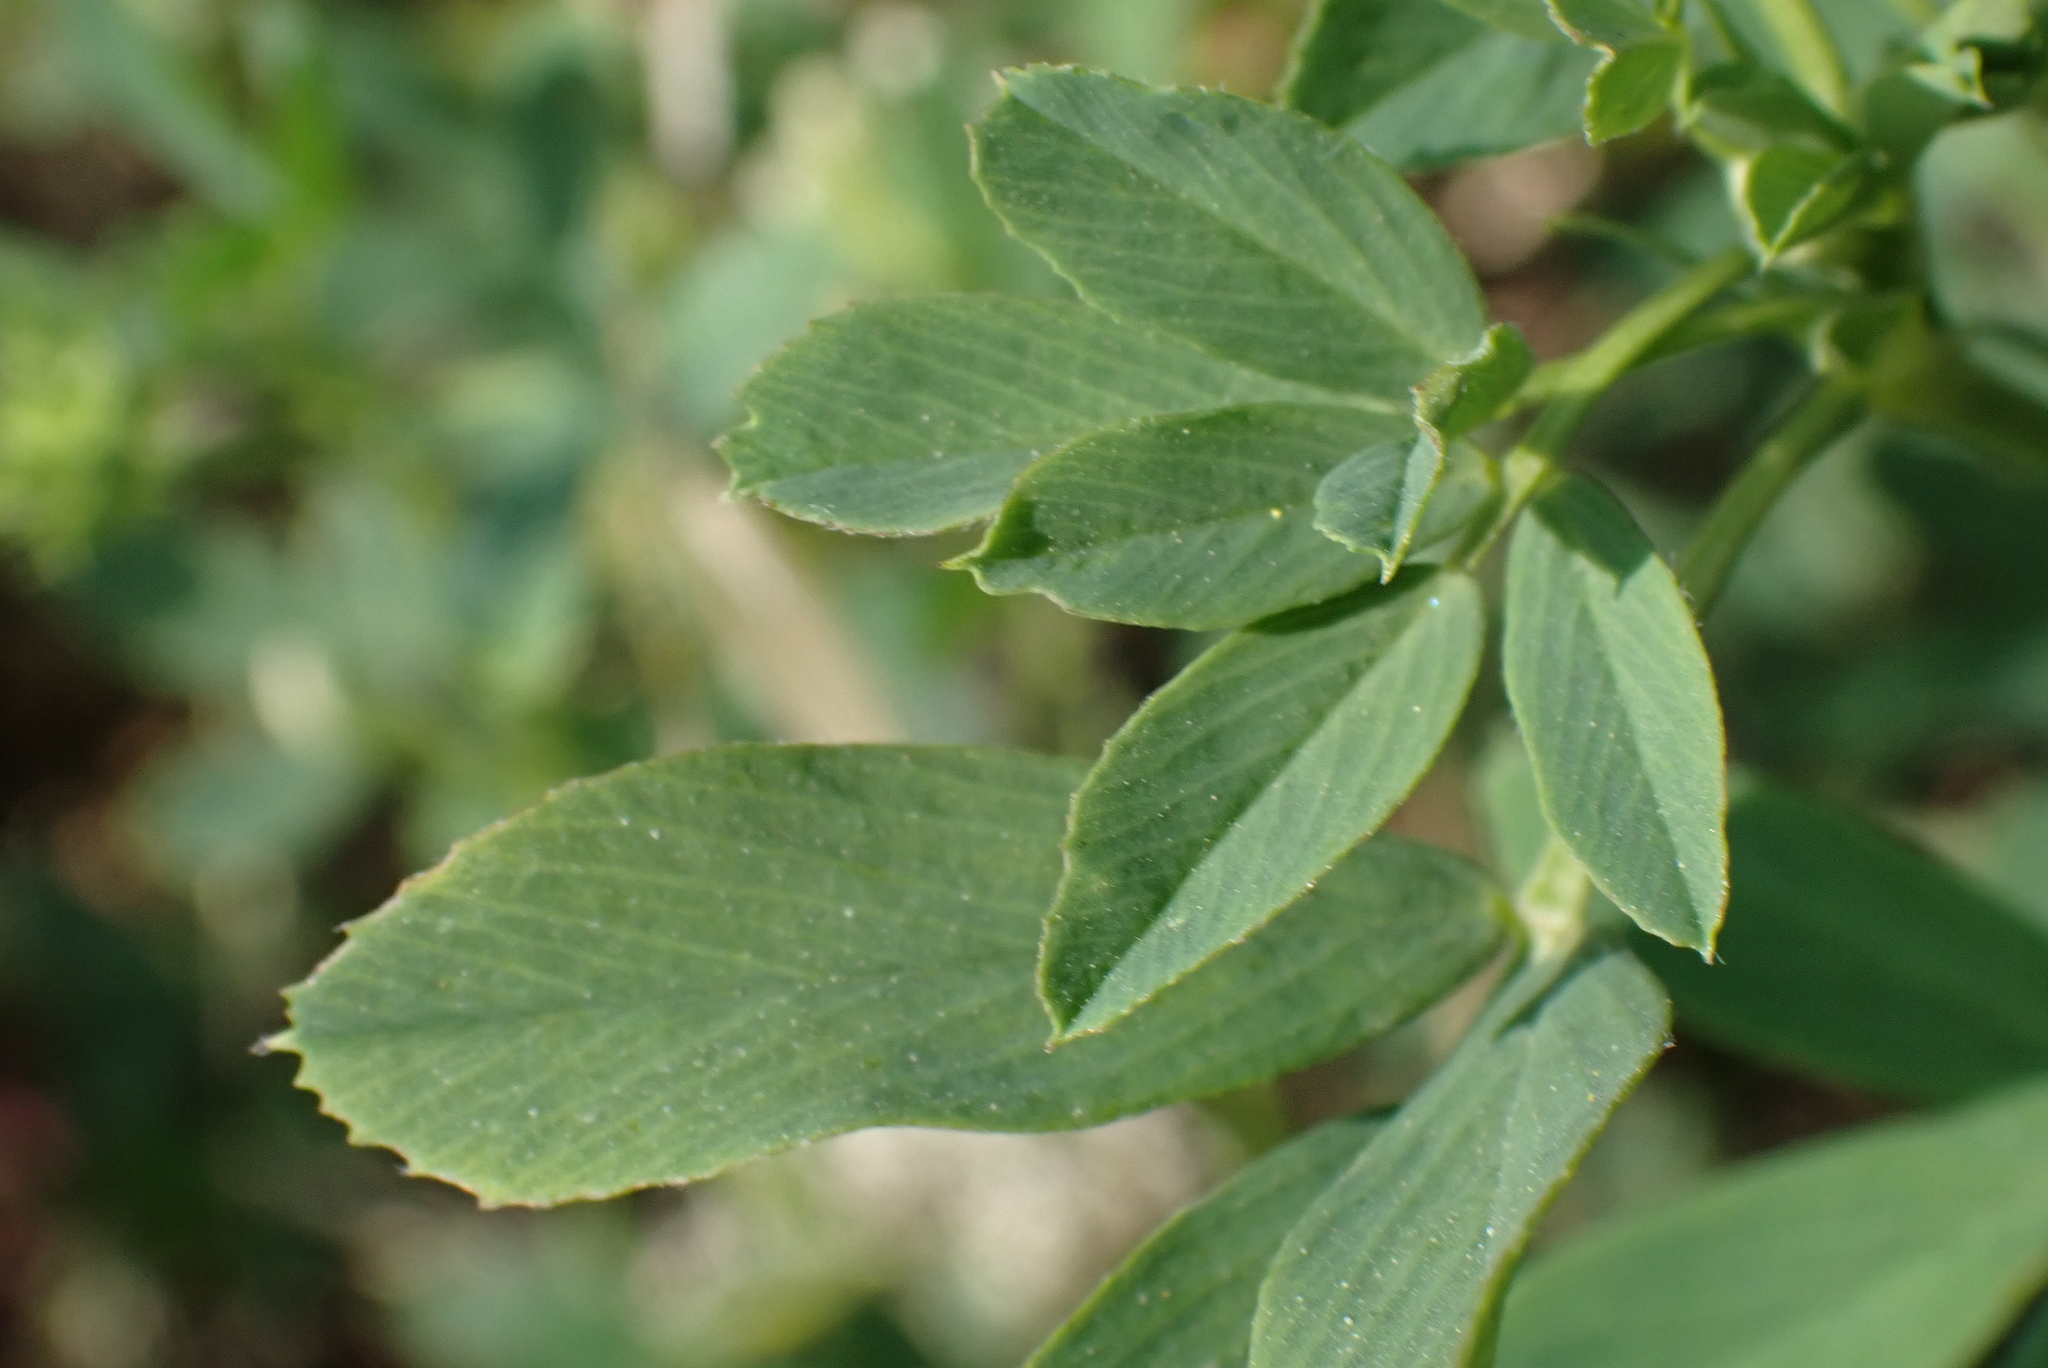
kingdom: Plantae
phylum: Tracheophyta
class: Magnoliopsida
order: Fabales
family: Fabaceae
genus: Melilotus
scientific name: Melilotus albus
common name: White melilot
